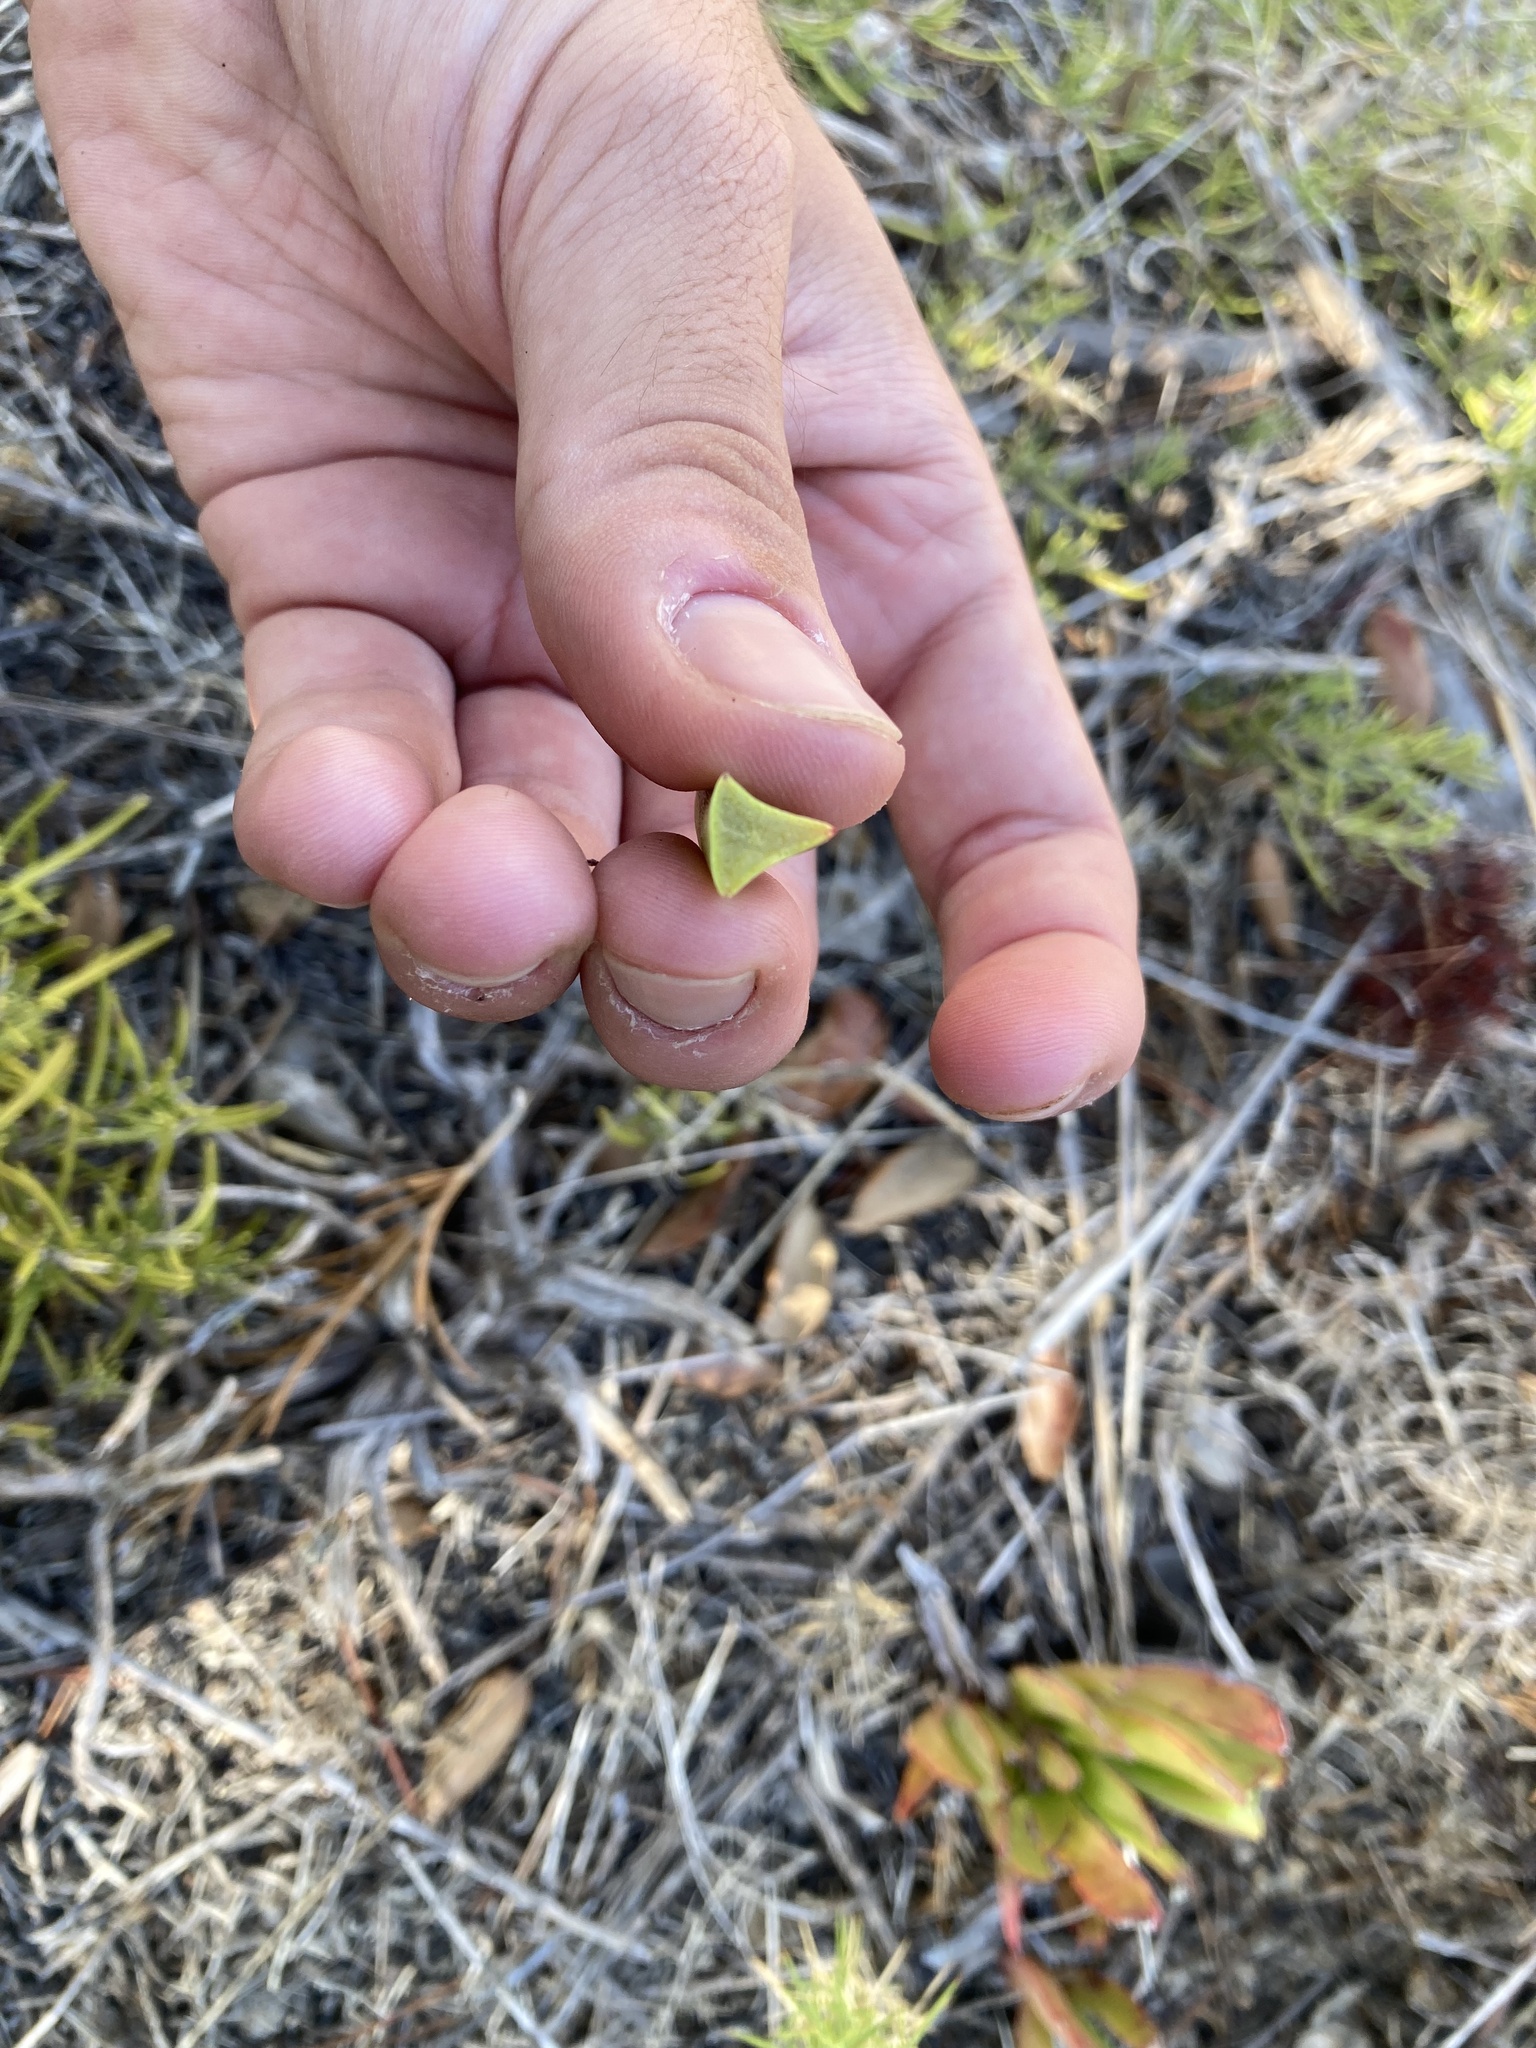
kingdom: Plantae
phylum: Tracheophyta
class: Magnoliopsida
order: Caryophyllales
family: Aizoaceae
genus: Carpobrotus
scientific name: Carpobrotus edulis
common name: Hottentot-fig
